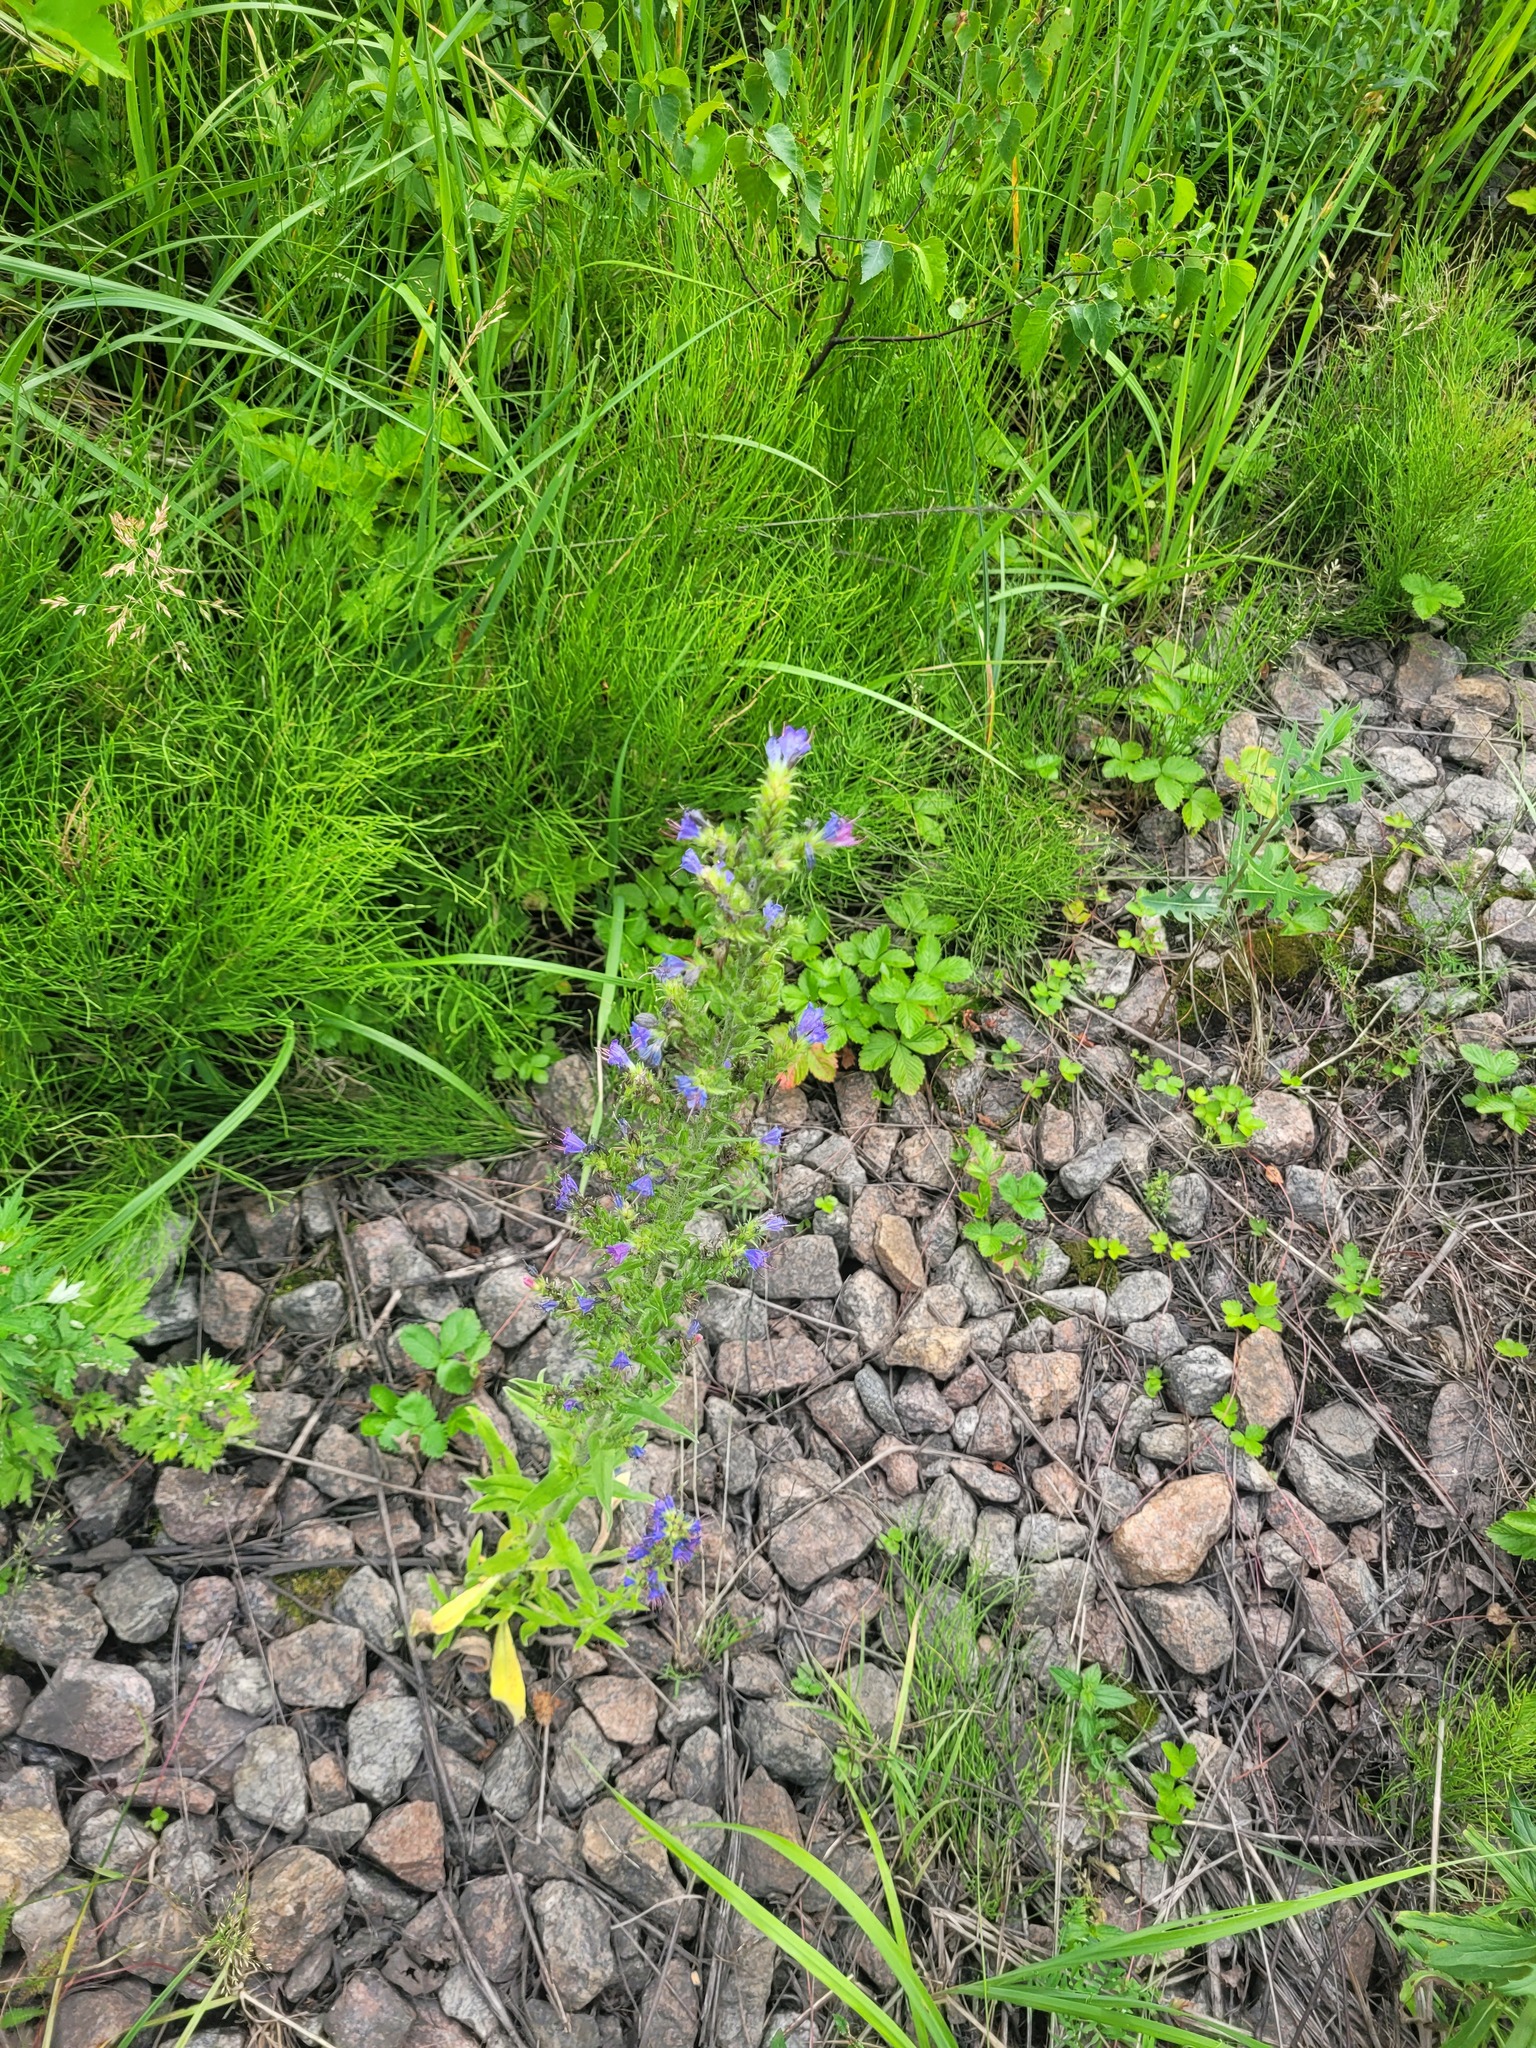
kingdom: Plantae
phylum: Tracheophyta
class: Magnoliopsida
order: Boraginales
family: Boraginaceae
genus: Echium
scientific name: Echium vulgare
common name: Common viper's bugloss
